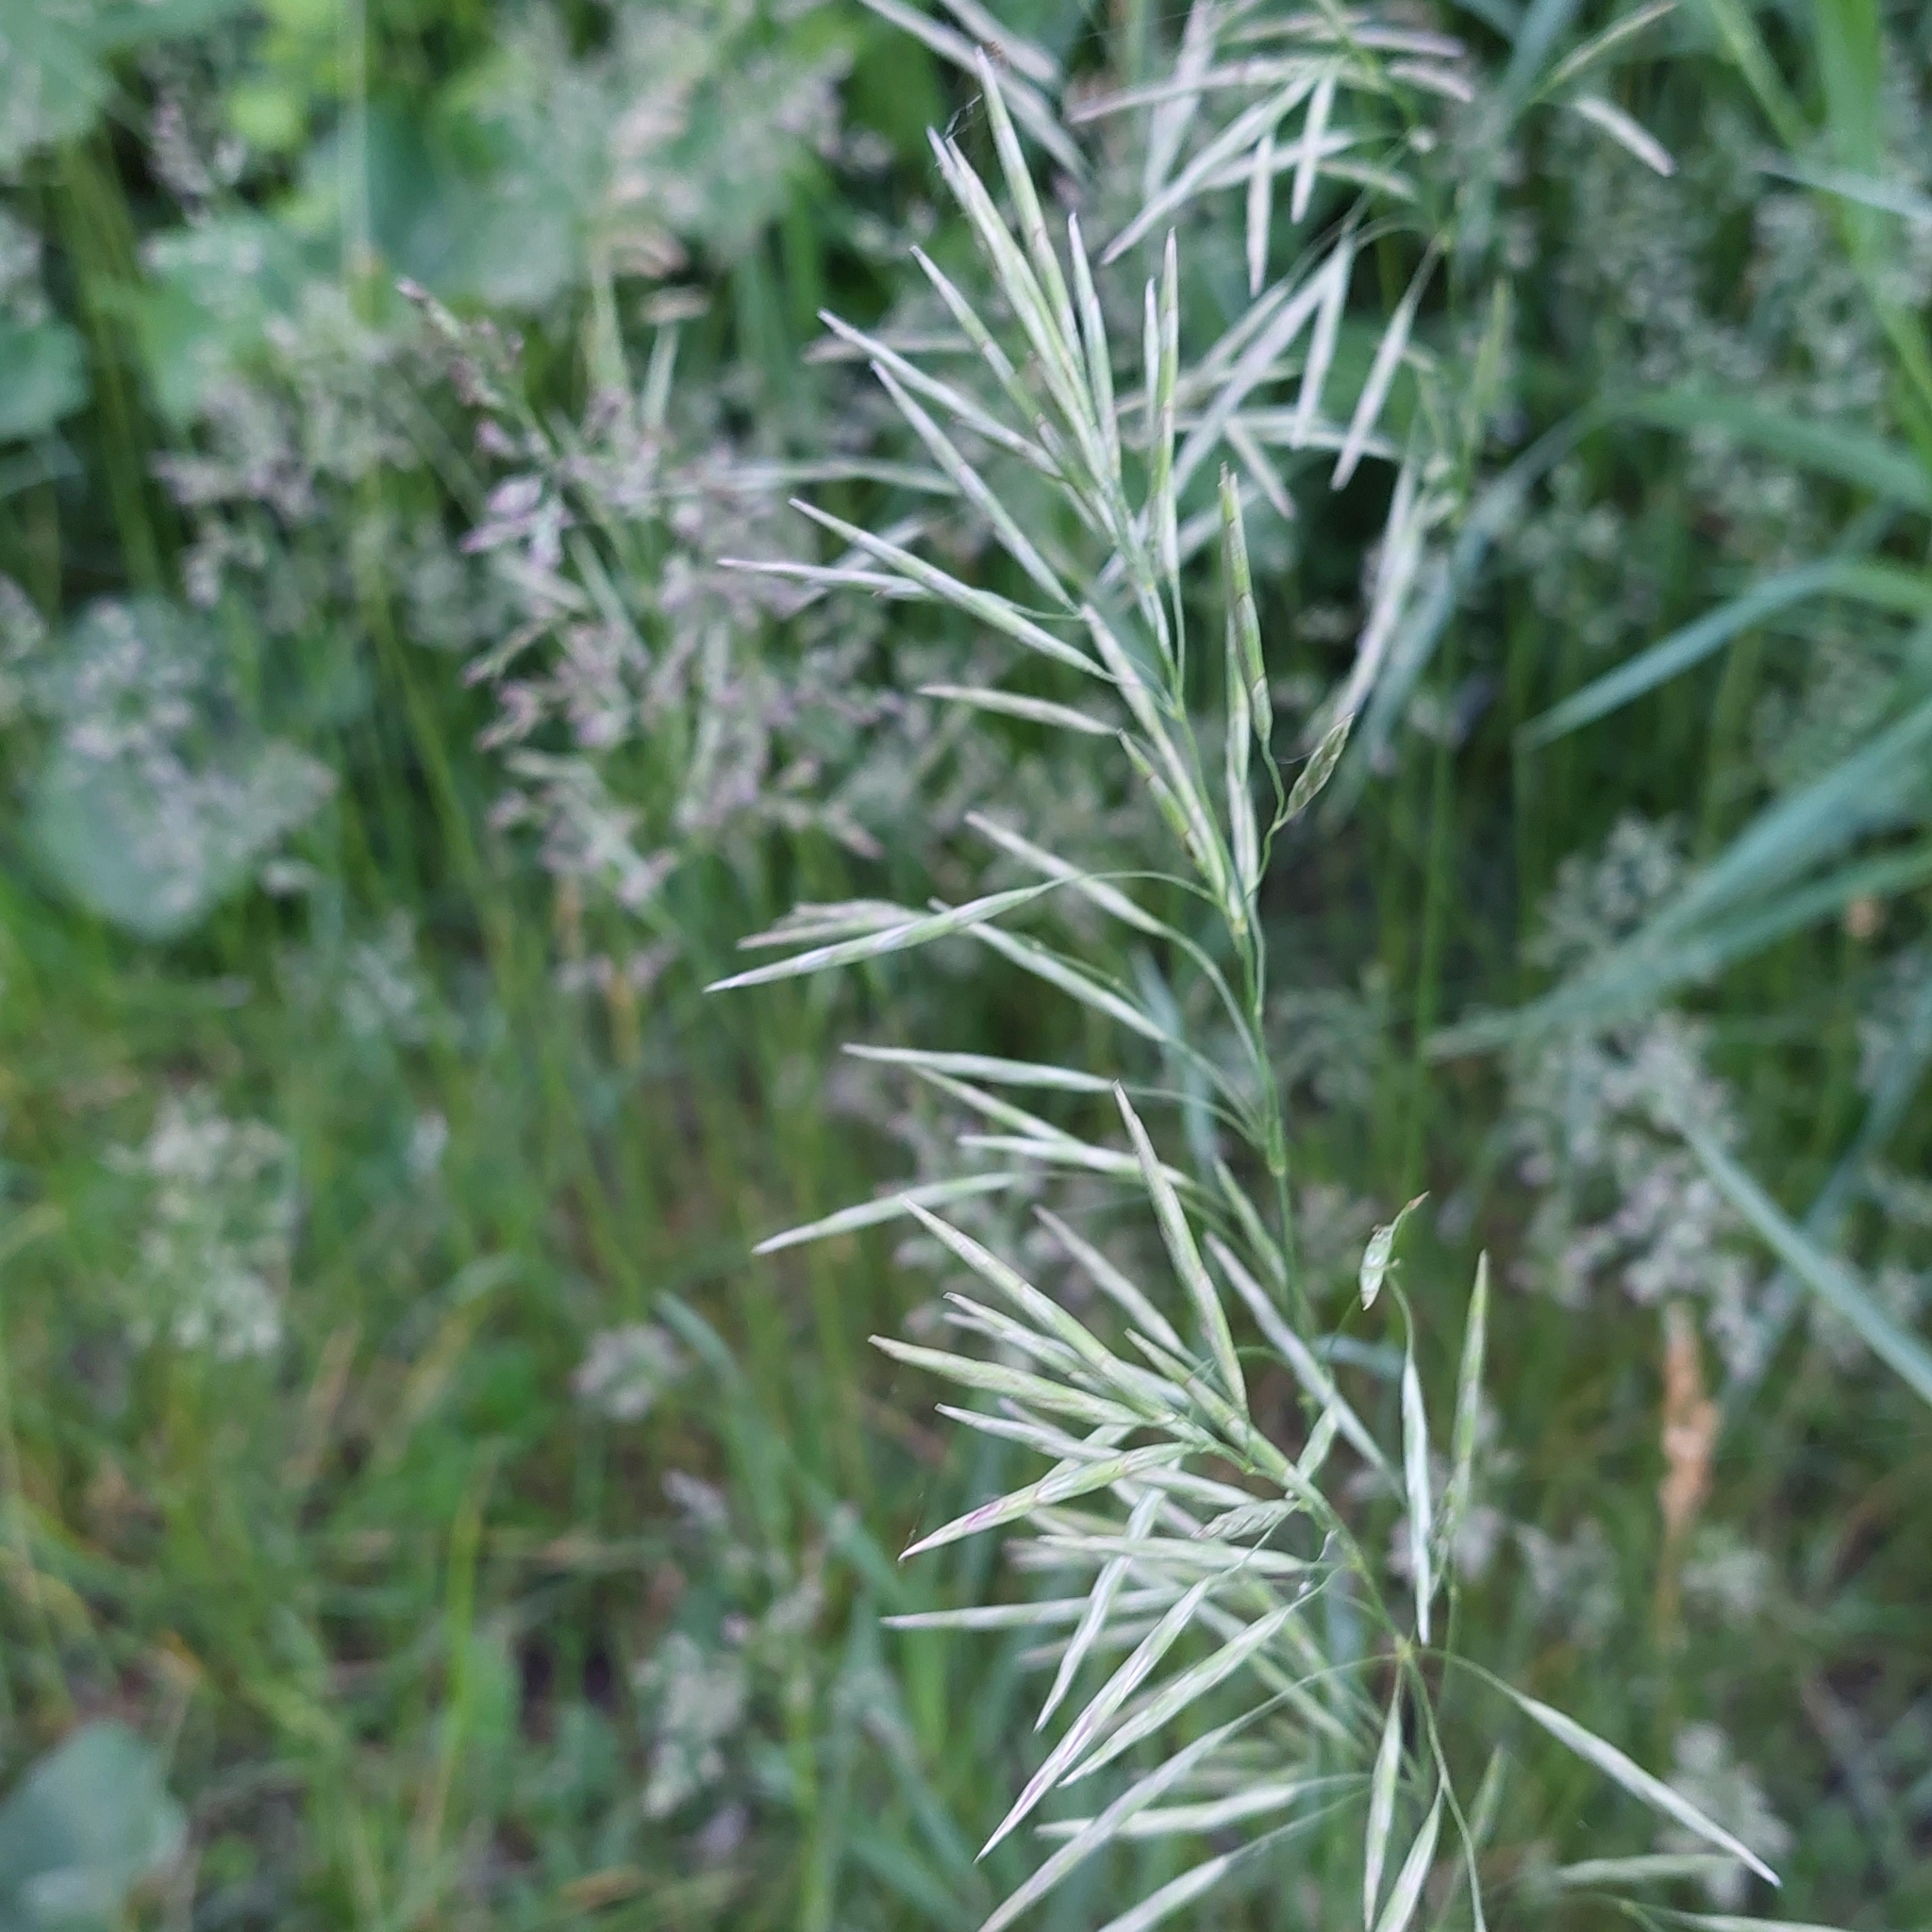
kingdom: Plantae
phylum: Tracheophyta
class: Liliopsida
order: Poales
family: Poaceae
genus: Bromus
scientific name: Bromus inermis
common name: Smooth brome
